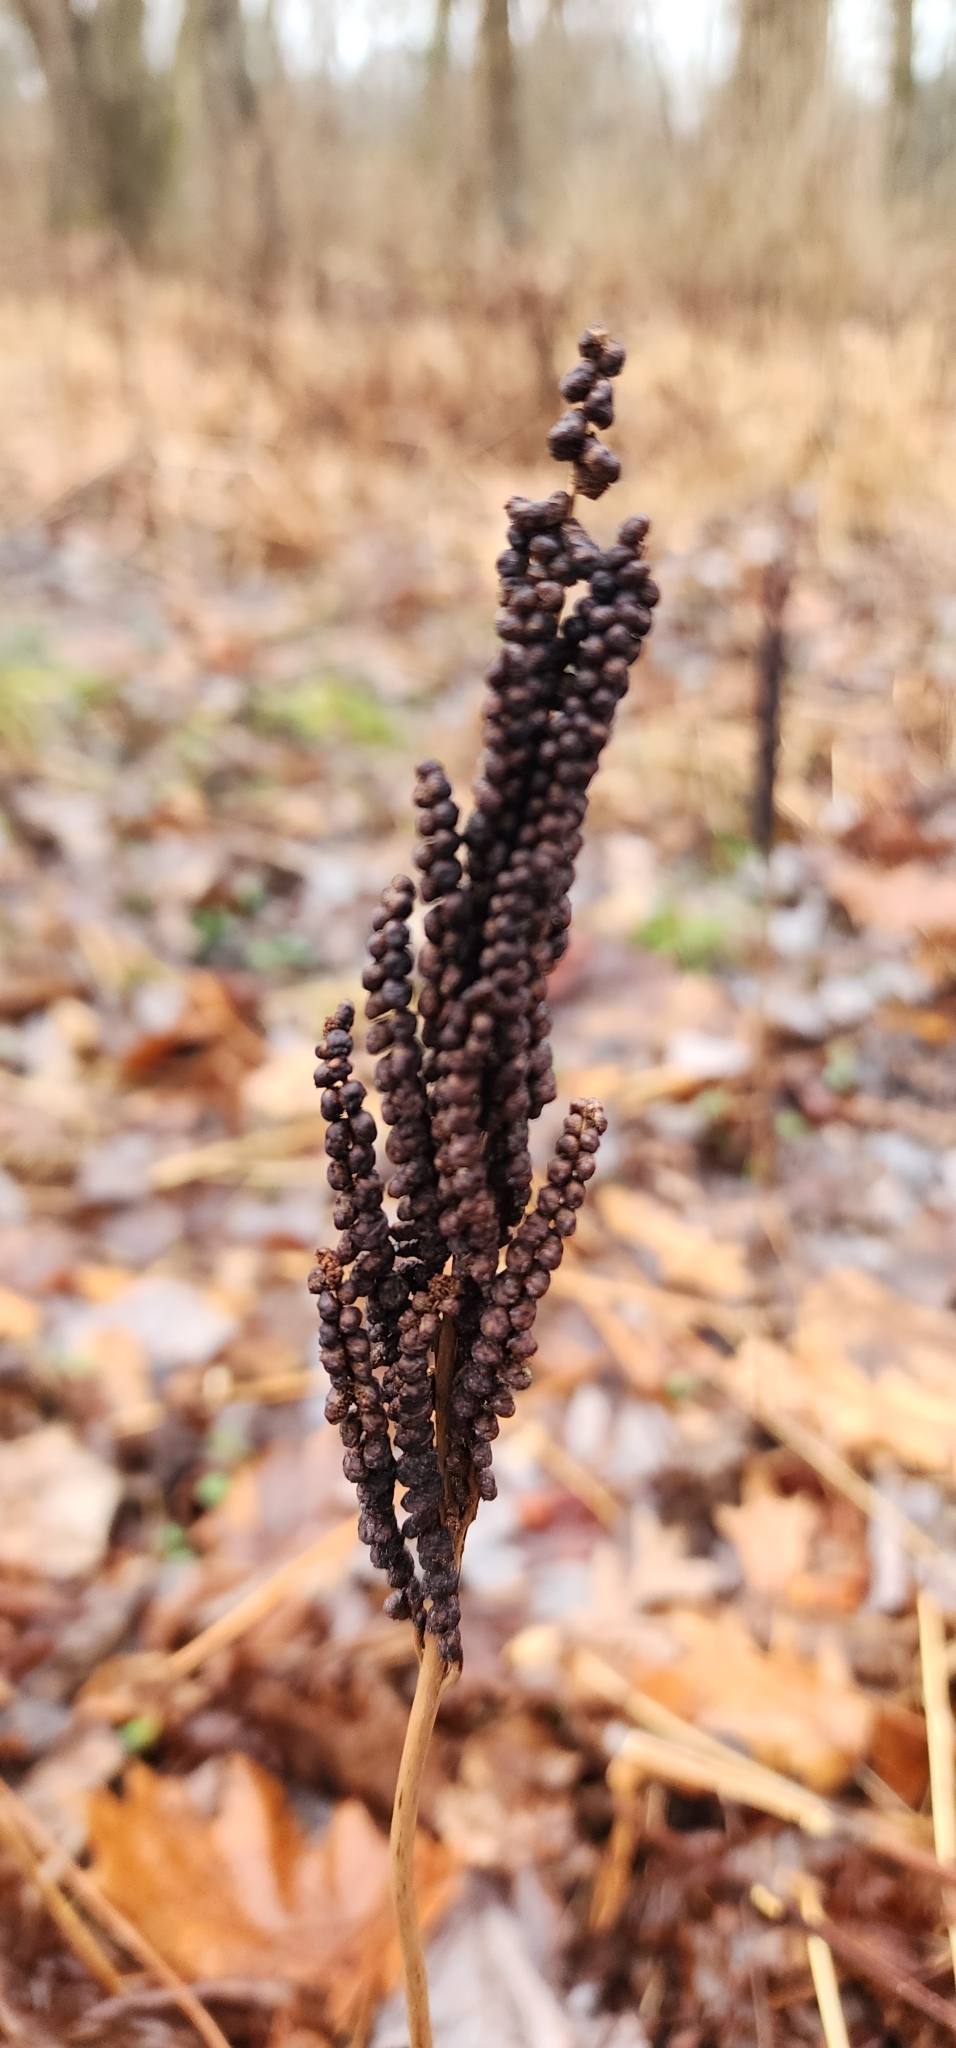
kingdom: Plantae
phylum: Tracheophyta
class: Polypodiopsida
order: Polypodiales
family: Onocleaceae
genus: Onoclea
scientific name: Onoclea sensibilis
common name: Sensitive fern
